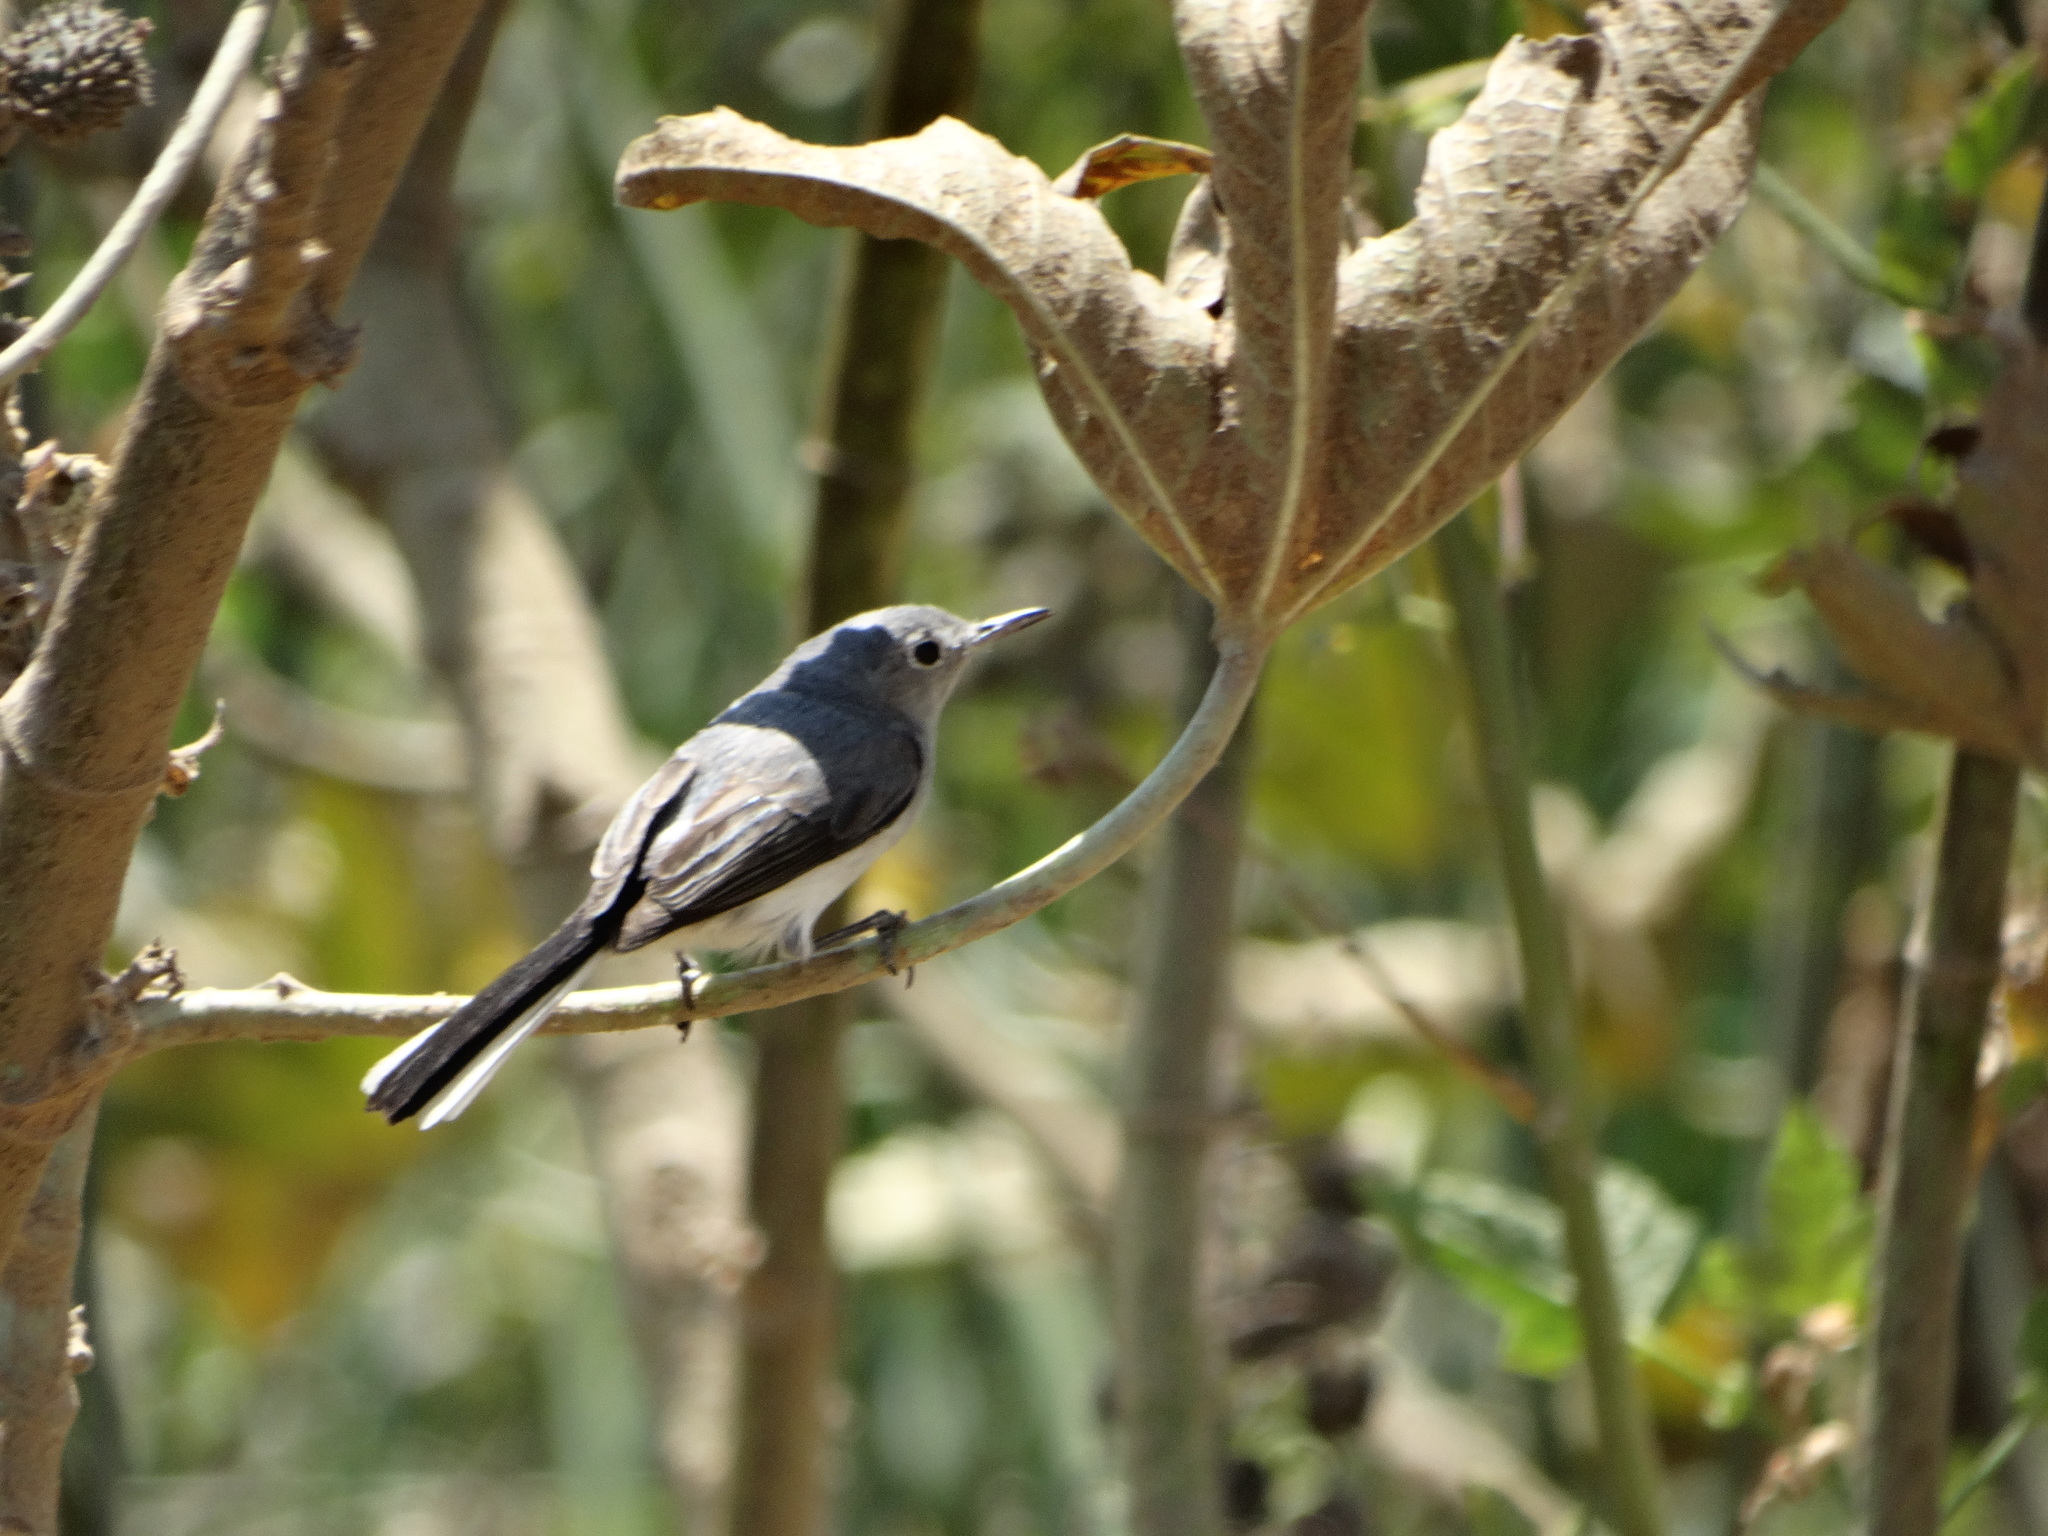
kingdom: Animalia
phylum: Chordata
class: Aves
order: Passeriformes
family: Polioptilidae
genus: Polioptila
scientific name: Polioptila caerulea
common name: Blue-gray gnatcatcher
